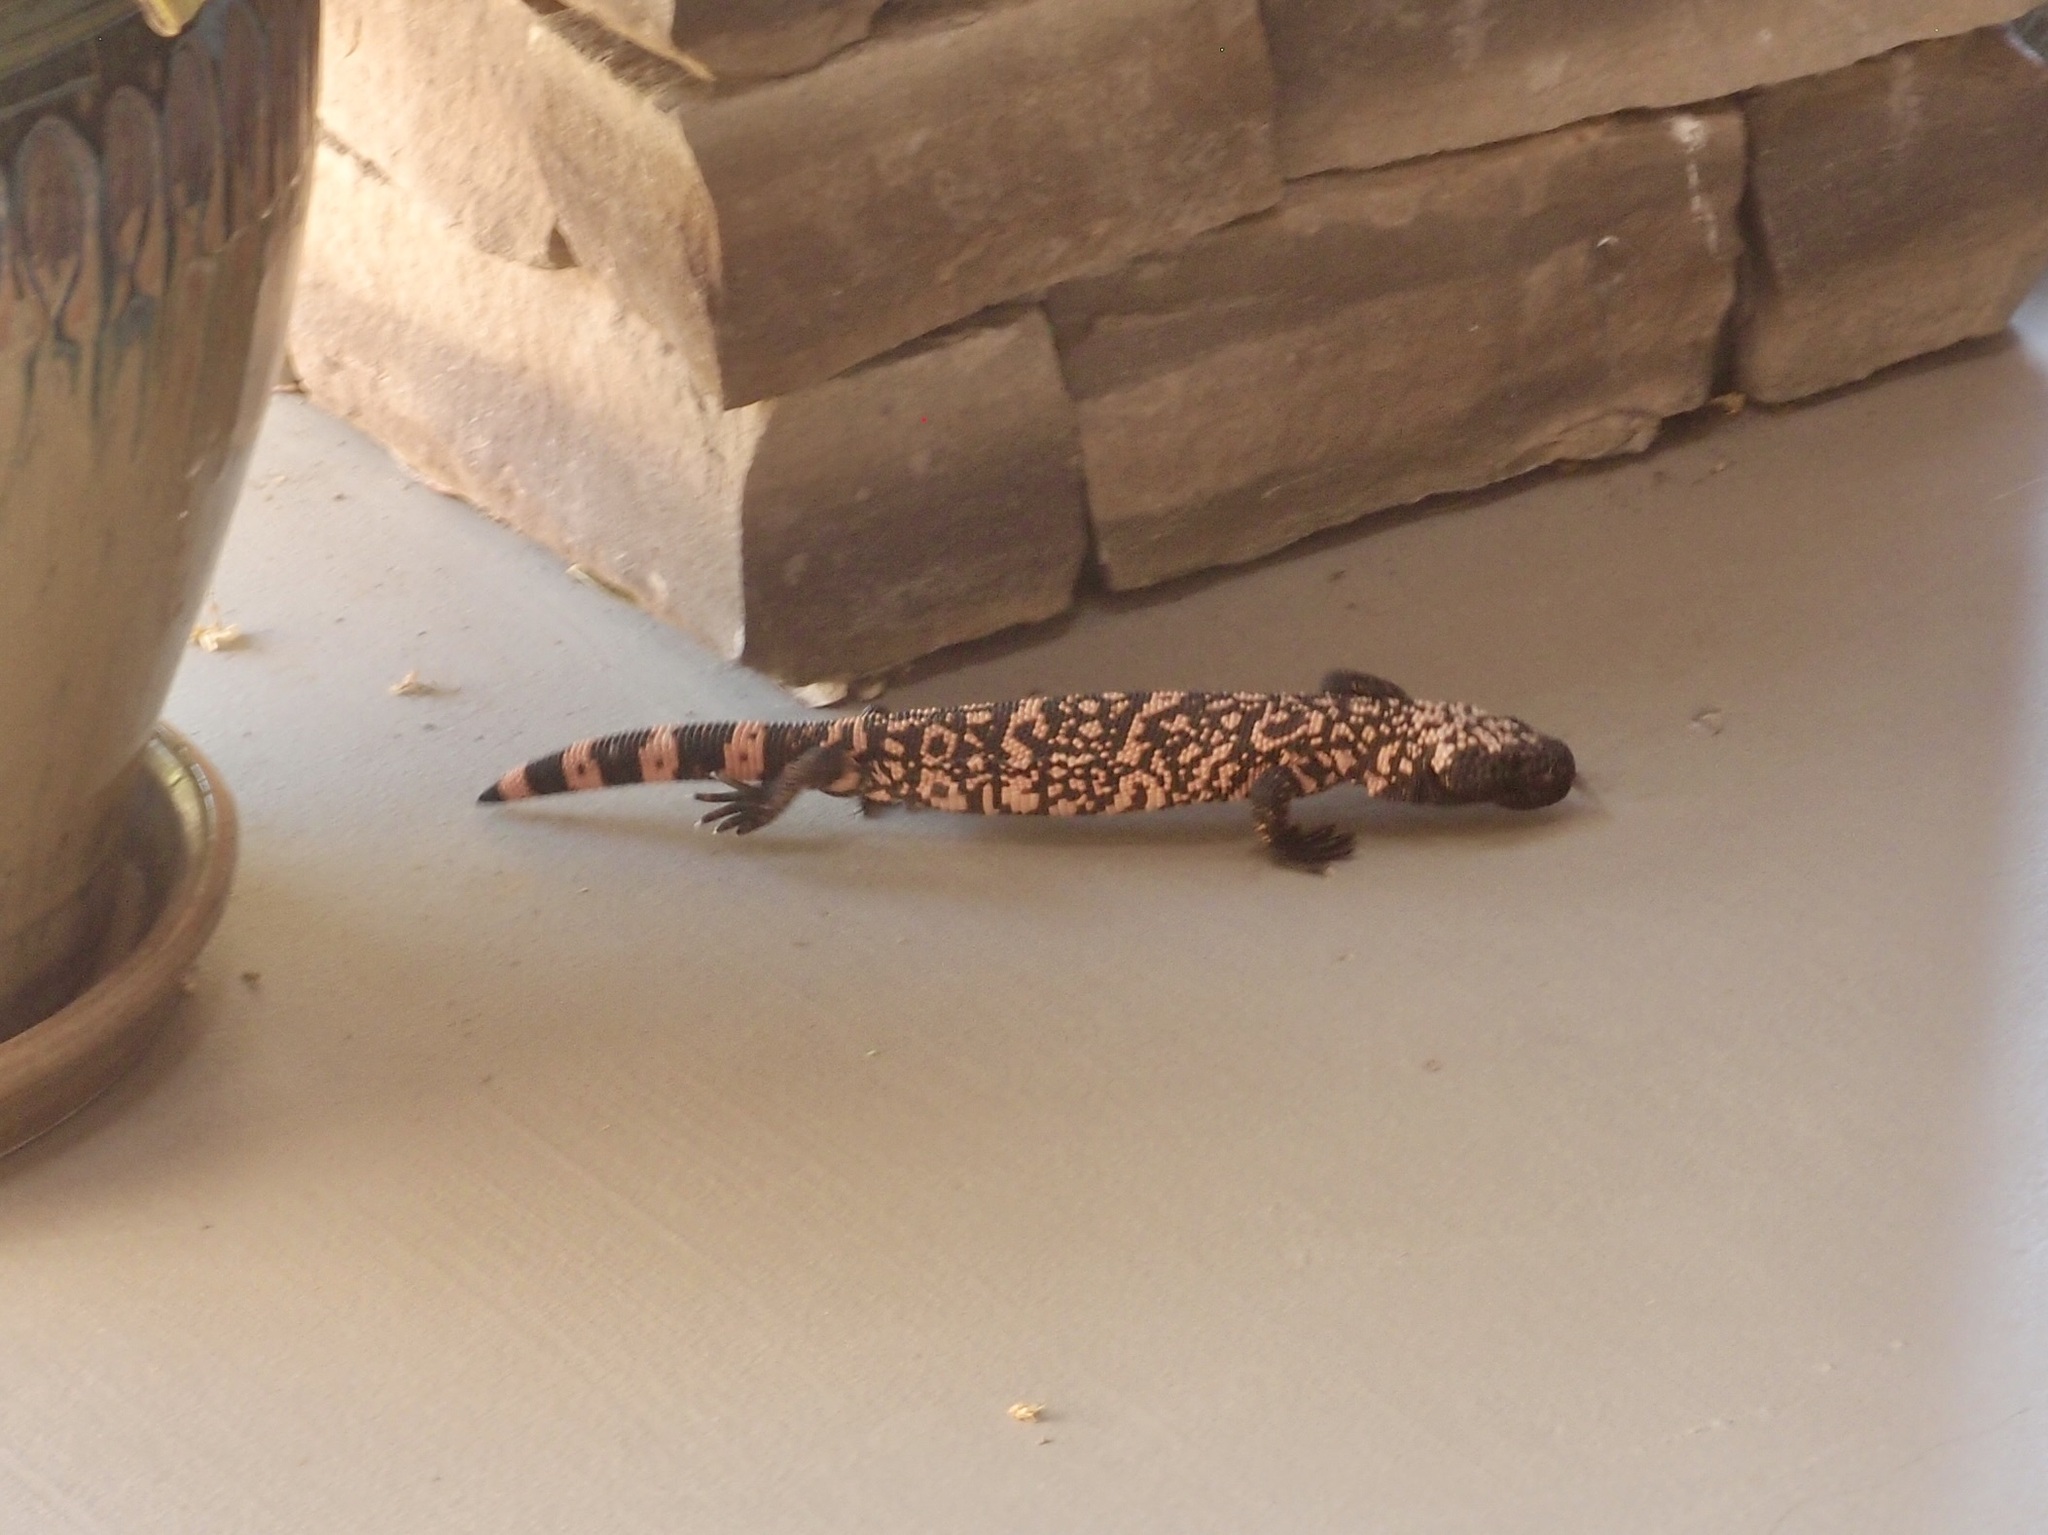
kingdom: Animalia
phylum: Chordata
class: Squamata
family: Helodermatidae
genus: Heloderma
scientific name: Heloderma suspectum
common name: Gila monster
